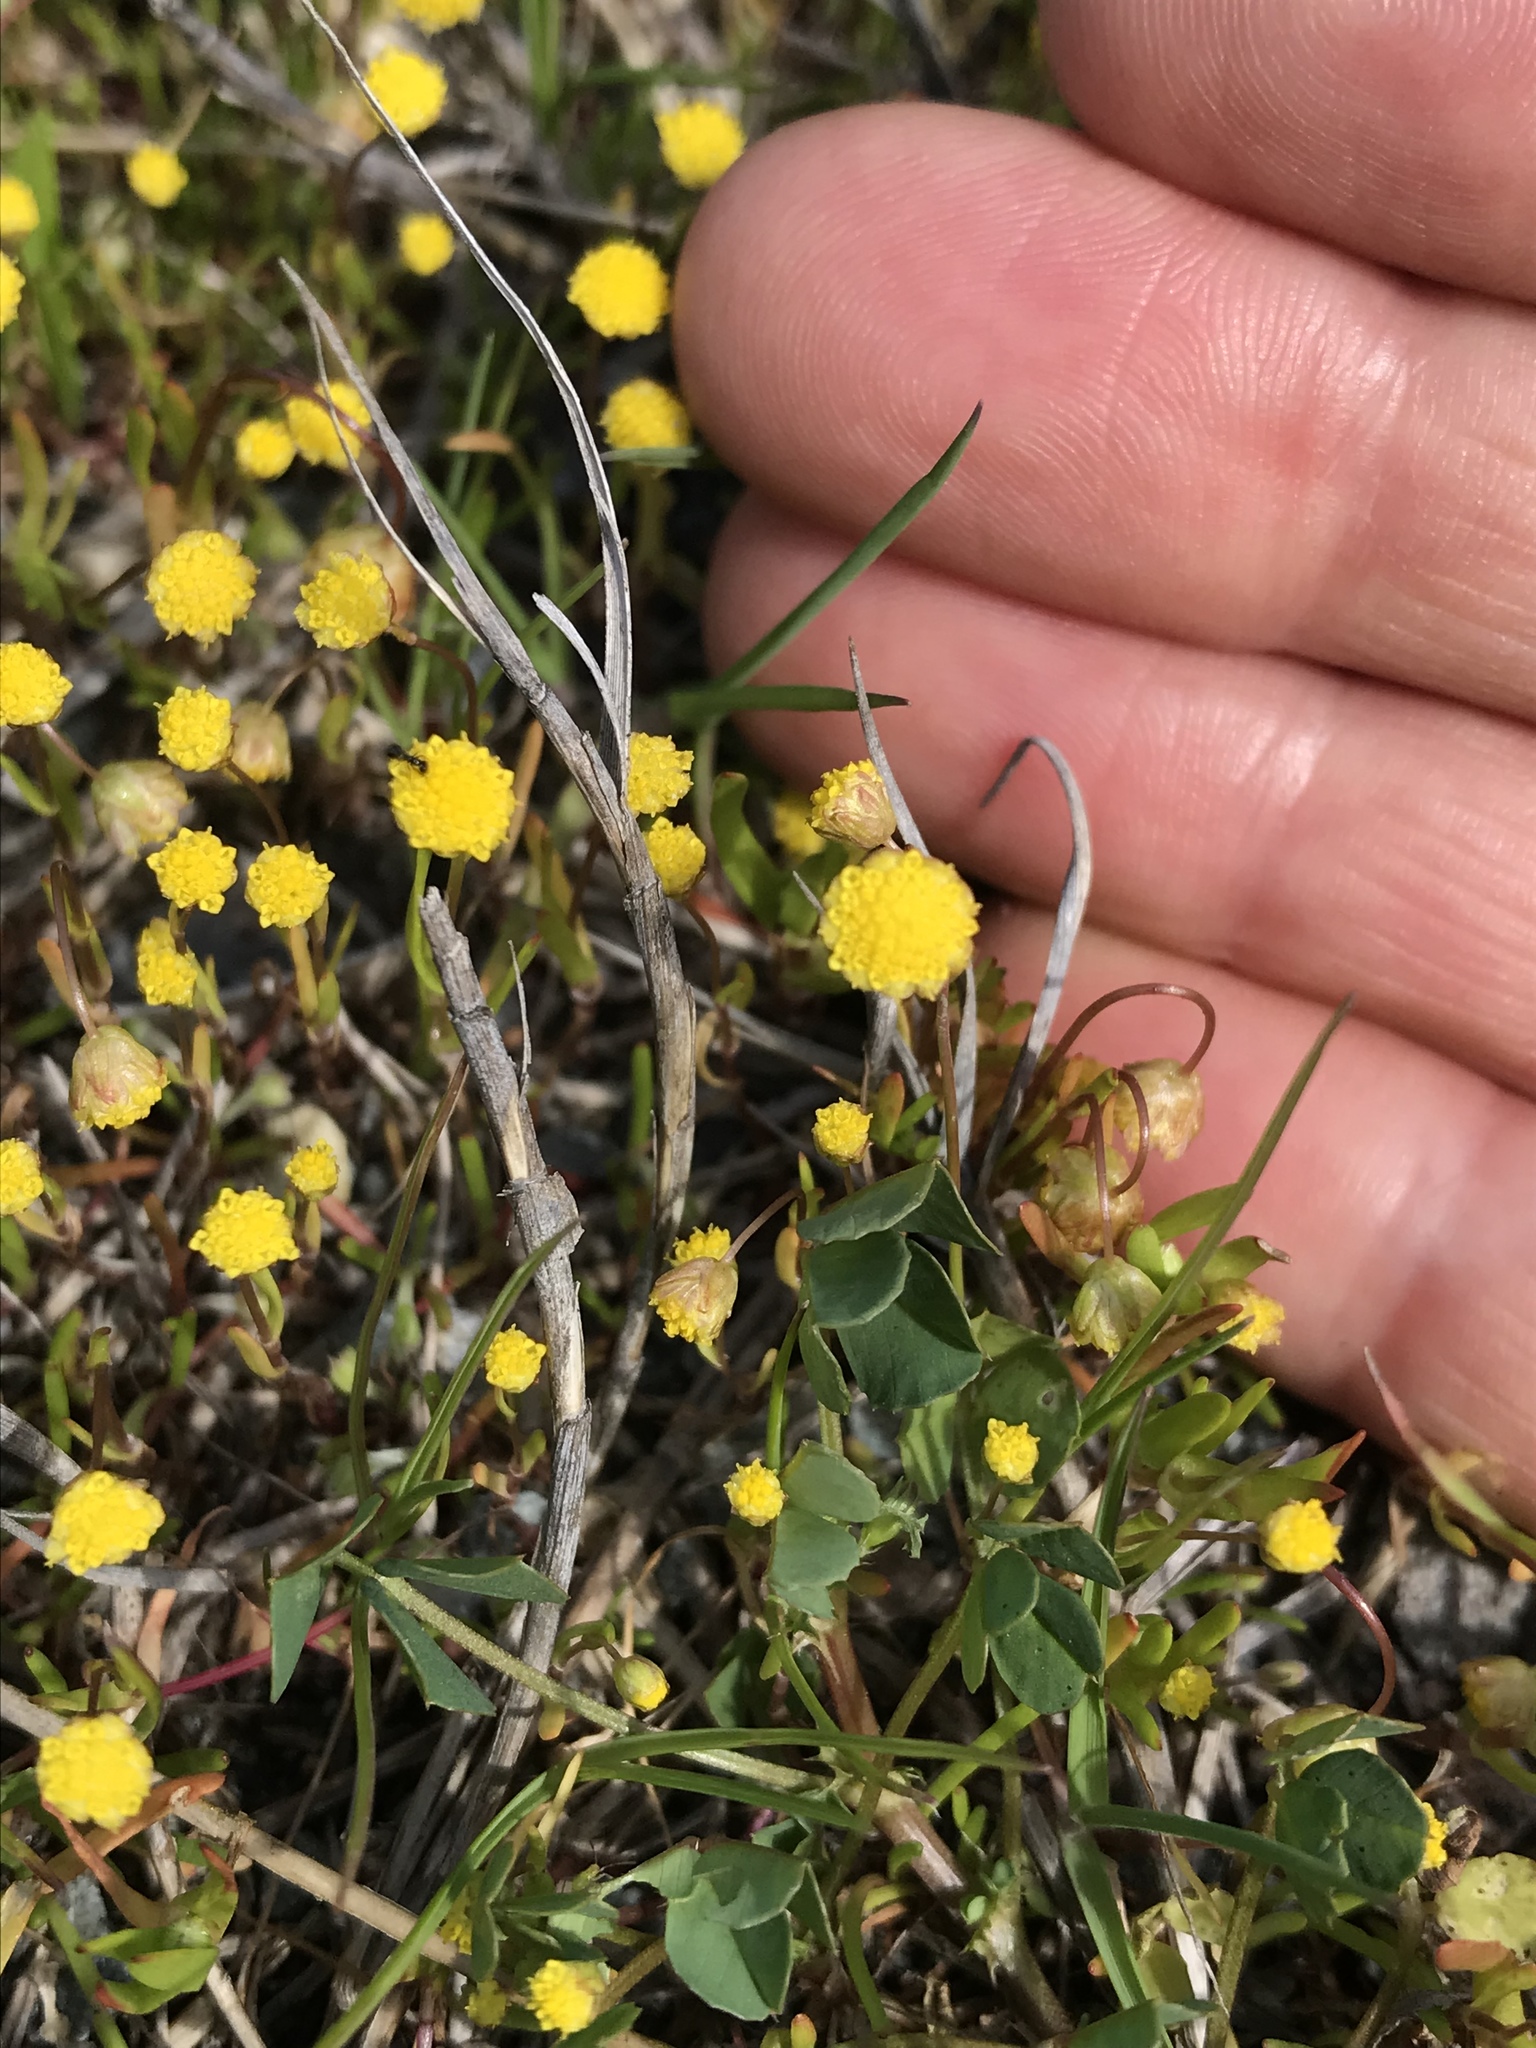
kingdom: Plantae
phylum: Tracheophyta
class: Magnoliopsida
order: Asterales
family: Asteraceae
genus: Cotula
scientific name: Cotula coronopifolia
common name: Buttonweed
